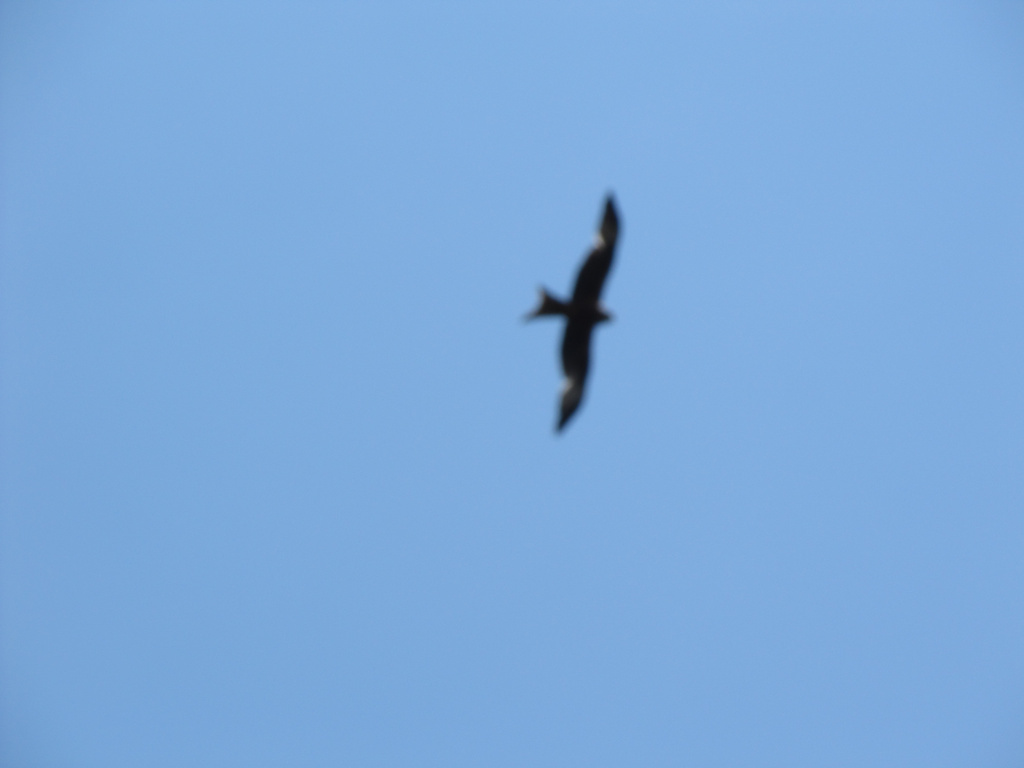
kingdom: Animalia
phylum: Chordata
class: Aves
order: Accipitriformes
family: Accipitridae
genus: Milvus
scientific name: Milvus milvus
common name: Red kite
